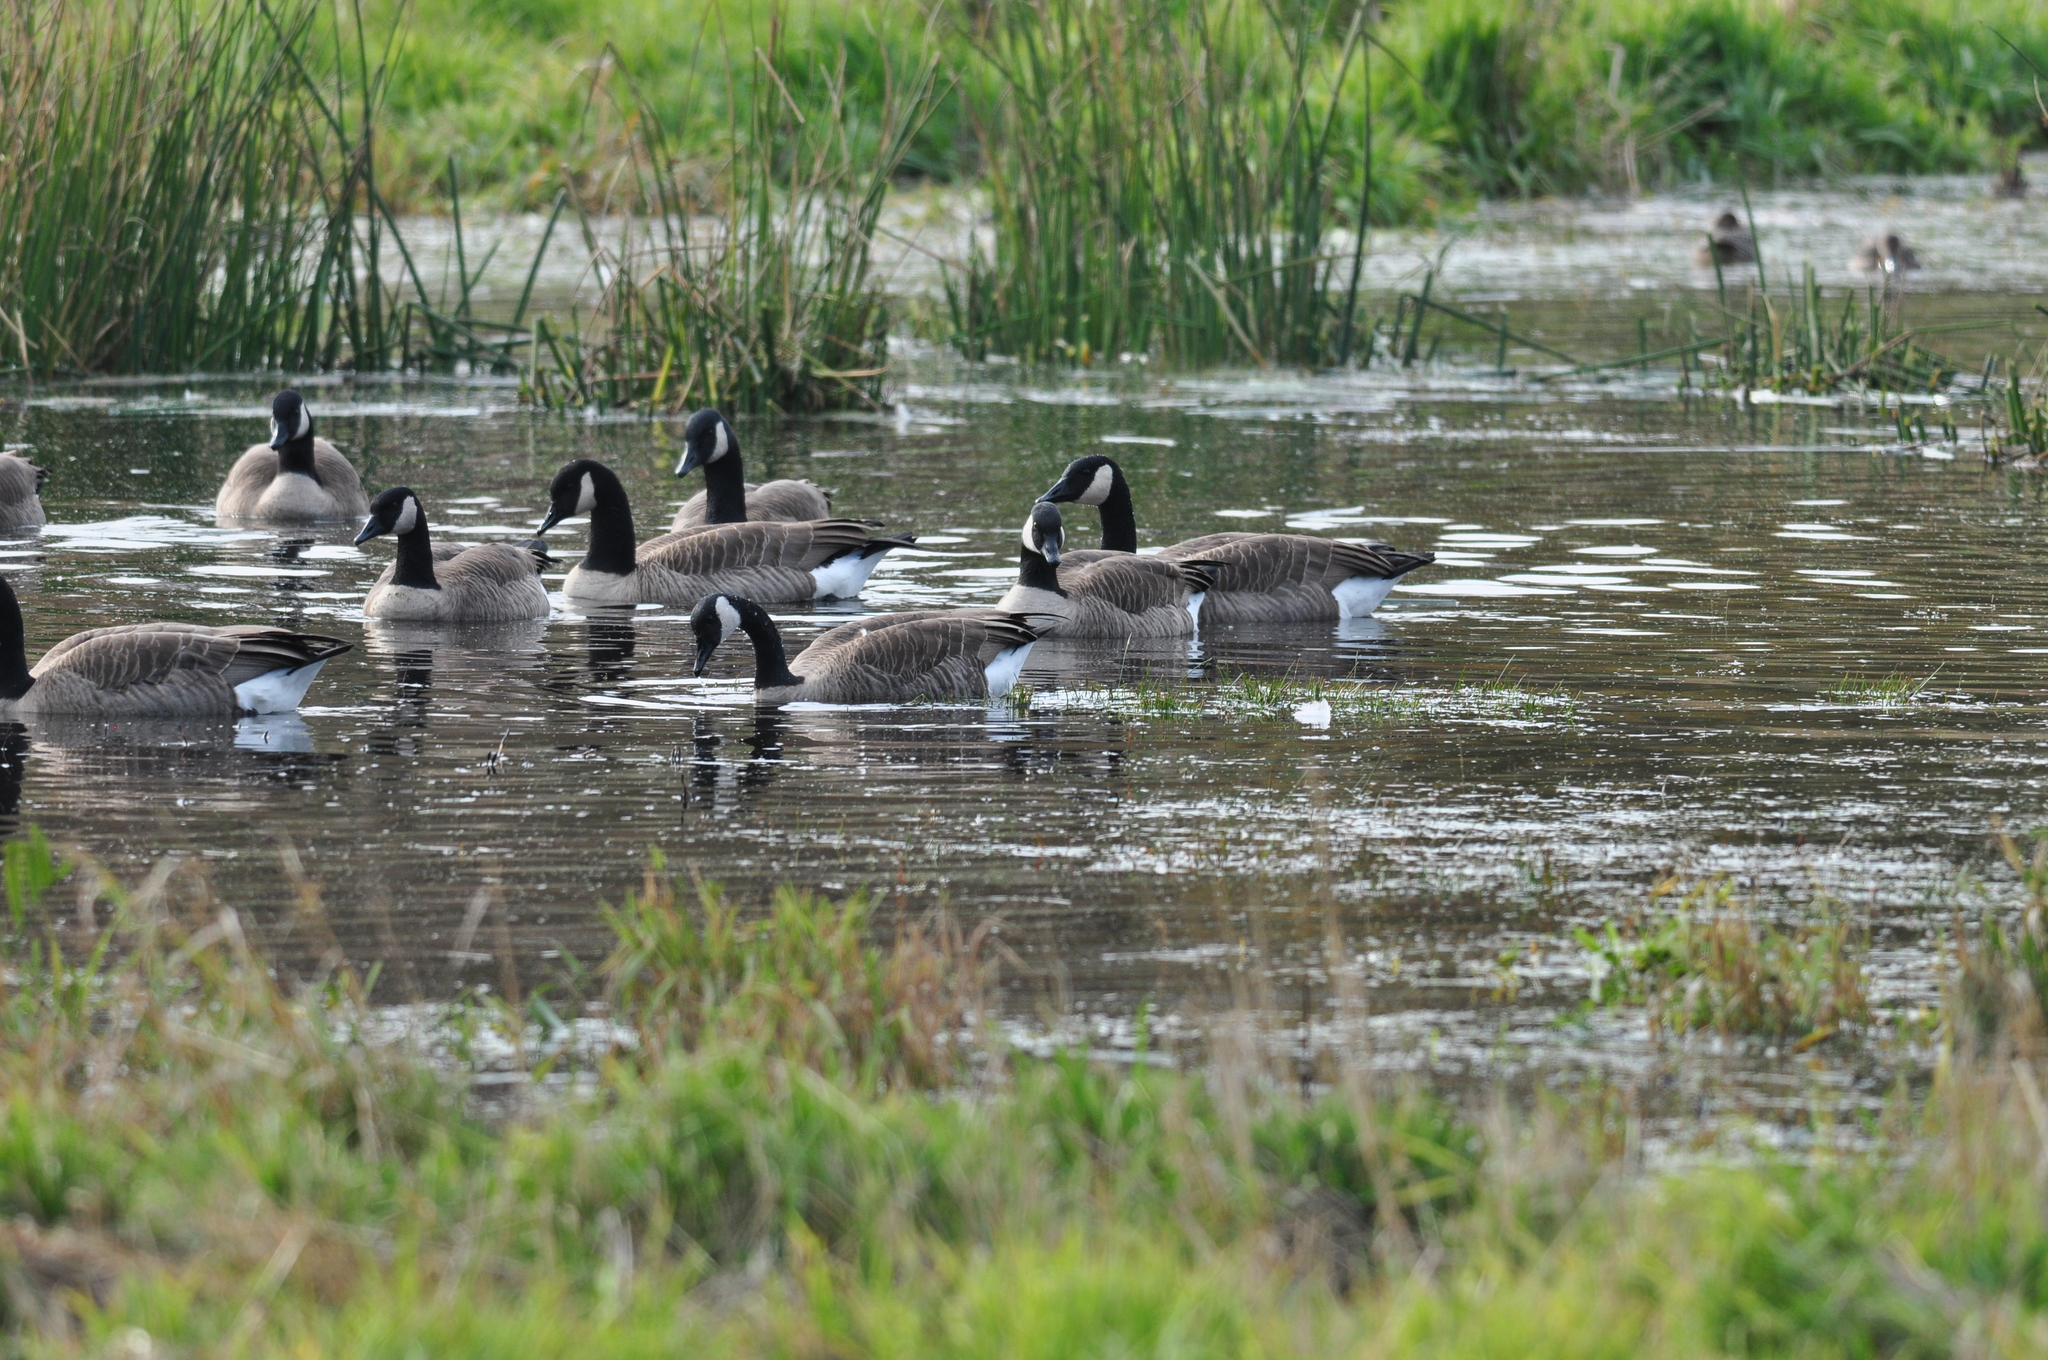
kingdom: Animalia
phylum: Chordata
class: Aves
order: Anseriformes
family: Anatidae
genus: Branta
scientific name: Branta canadensis
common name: Canada goose
